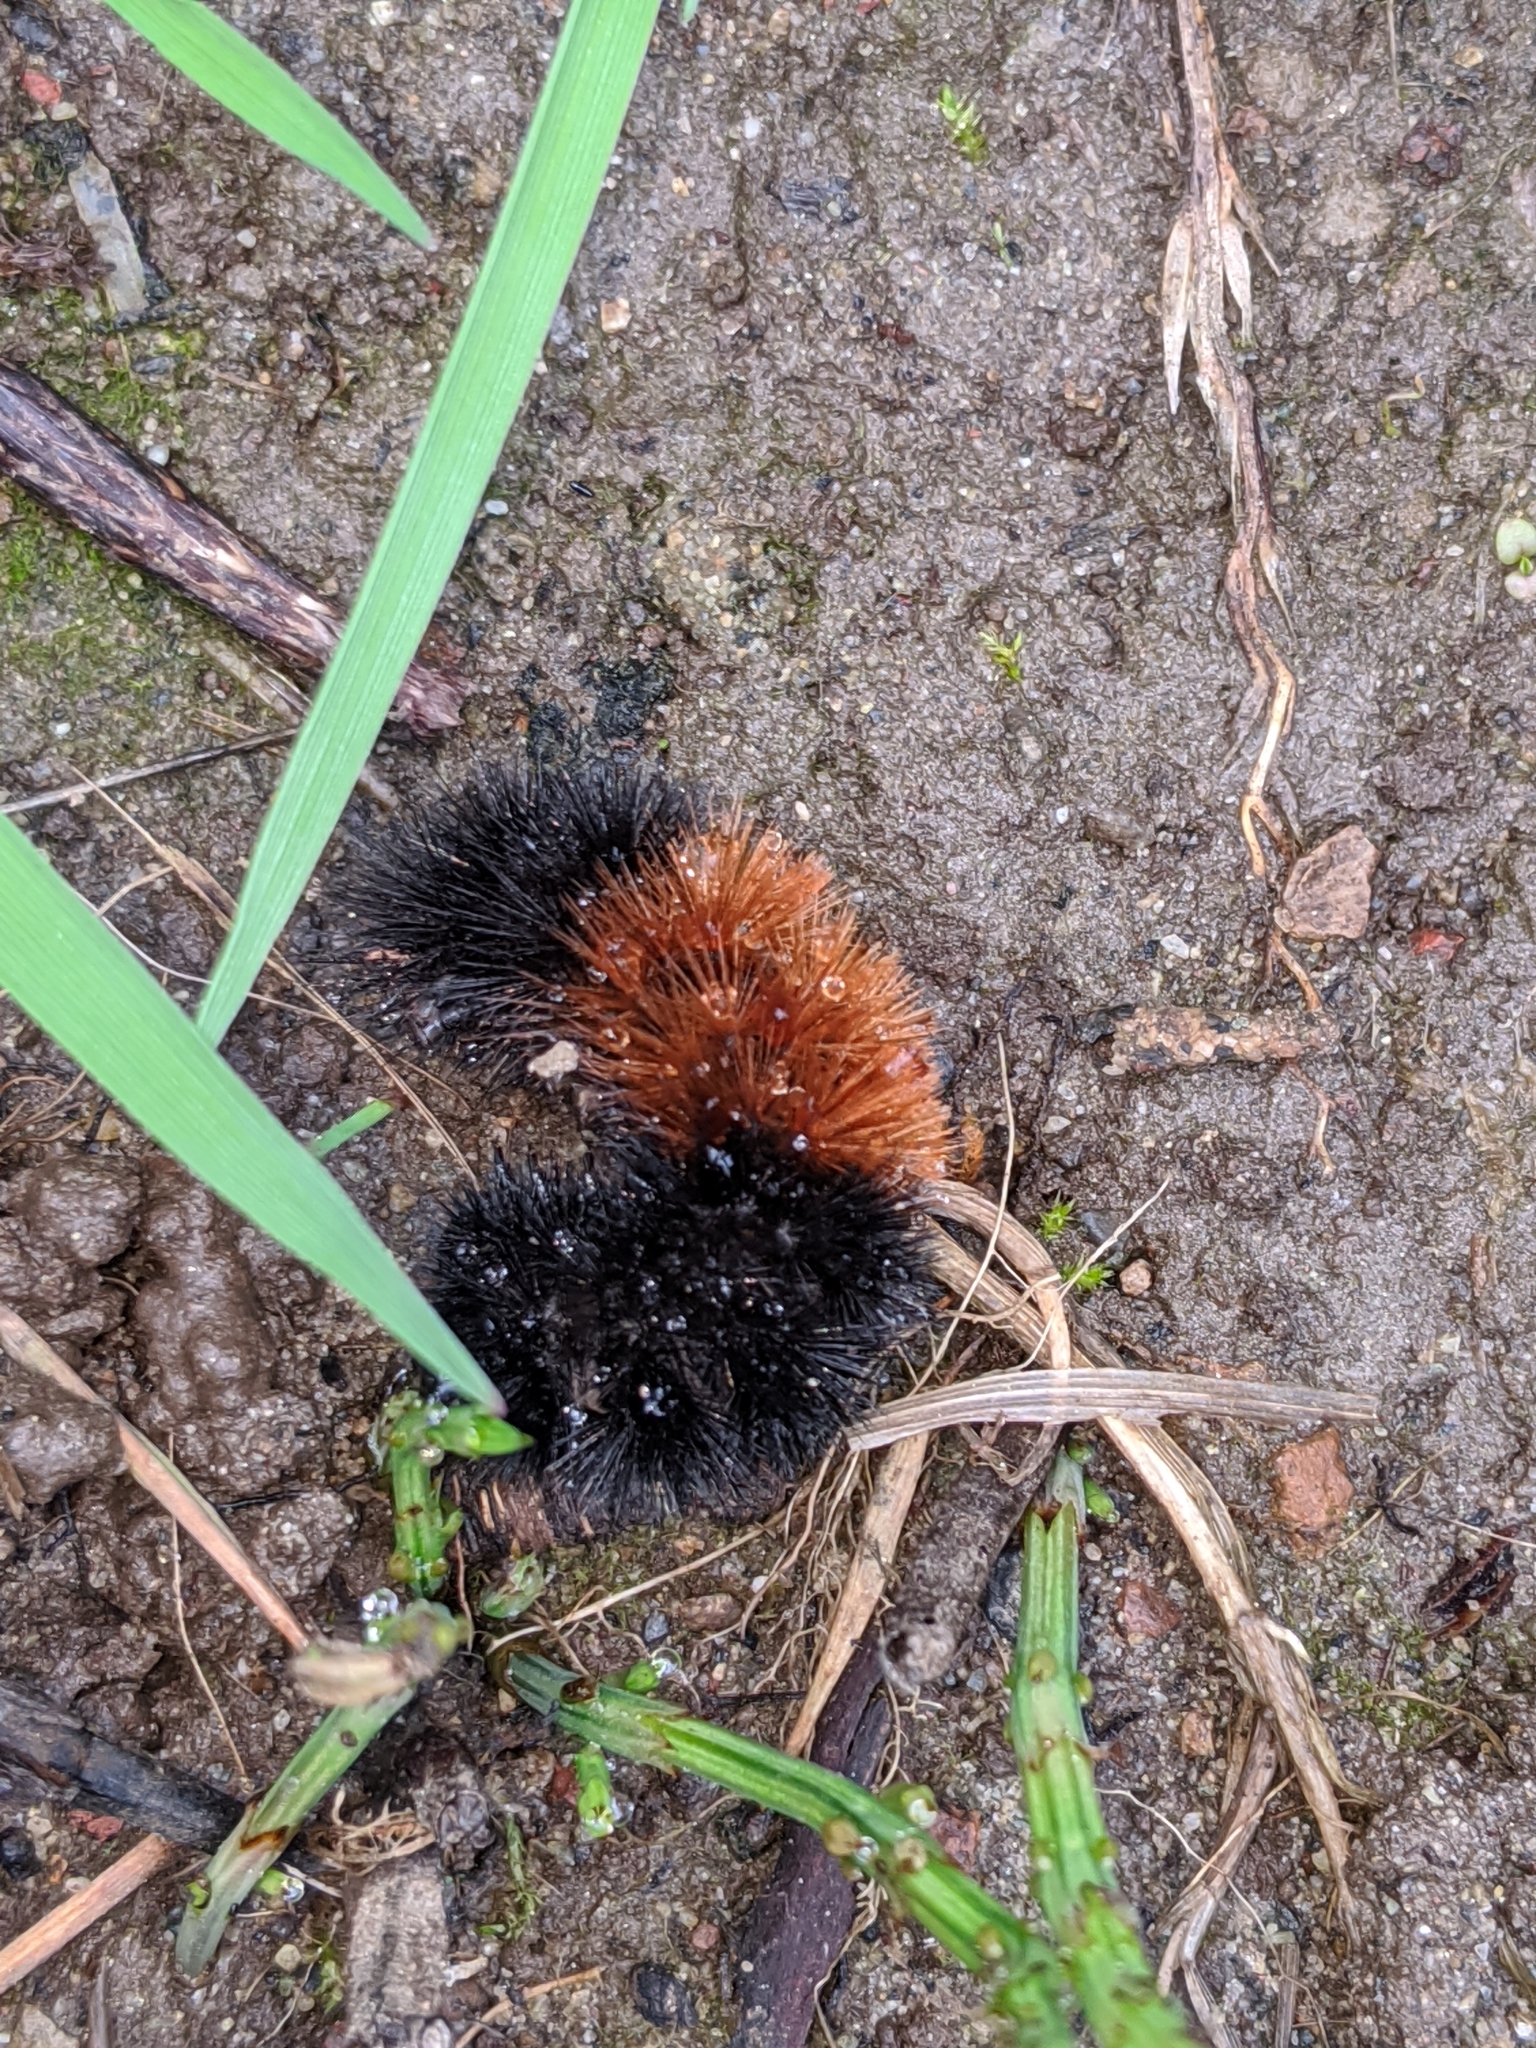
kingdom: Animalia
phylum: Arthropoda
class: Insecta
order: Lepidoptera
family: Erebidae
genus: Pyrrharctia
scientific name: Pyrrharctia isabella
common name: Isabella tiger moth
